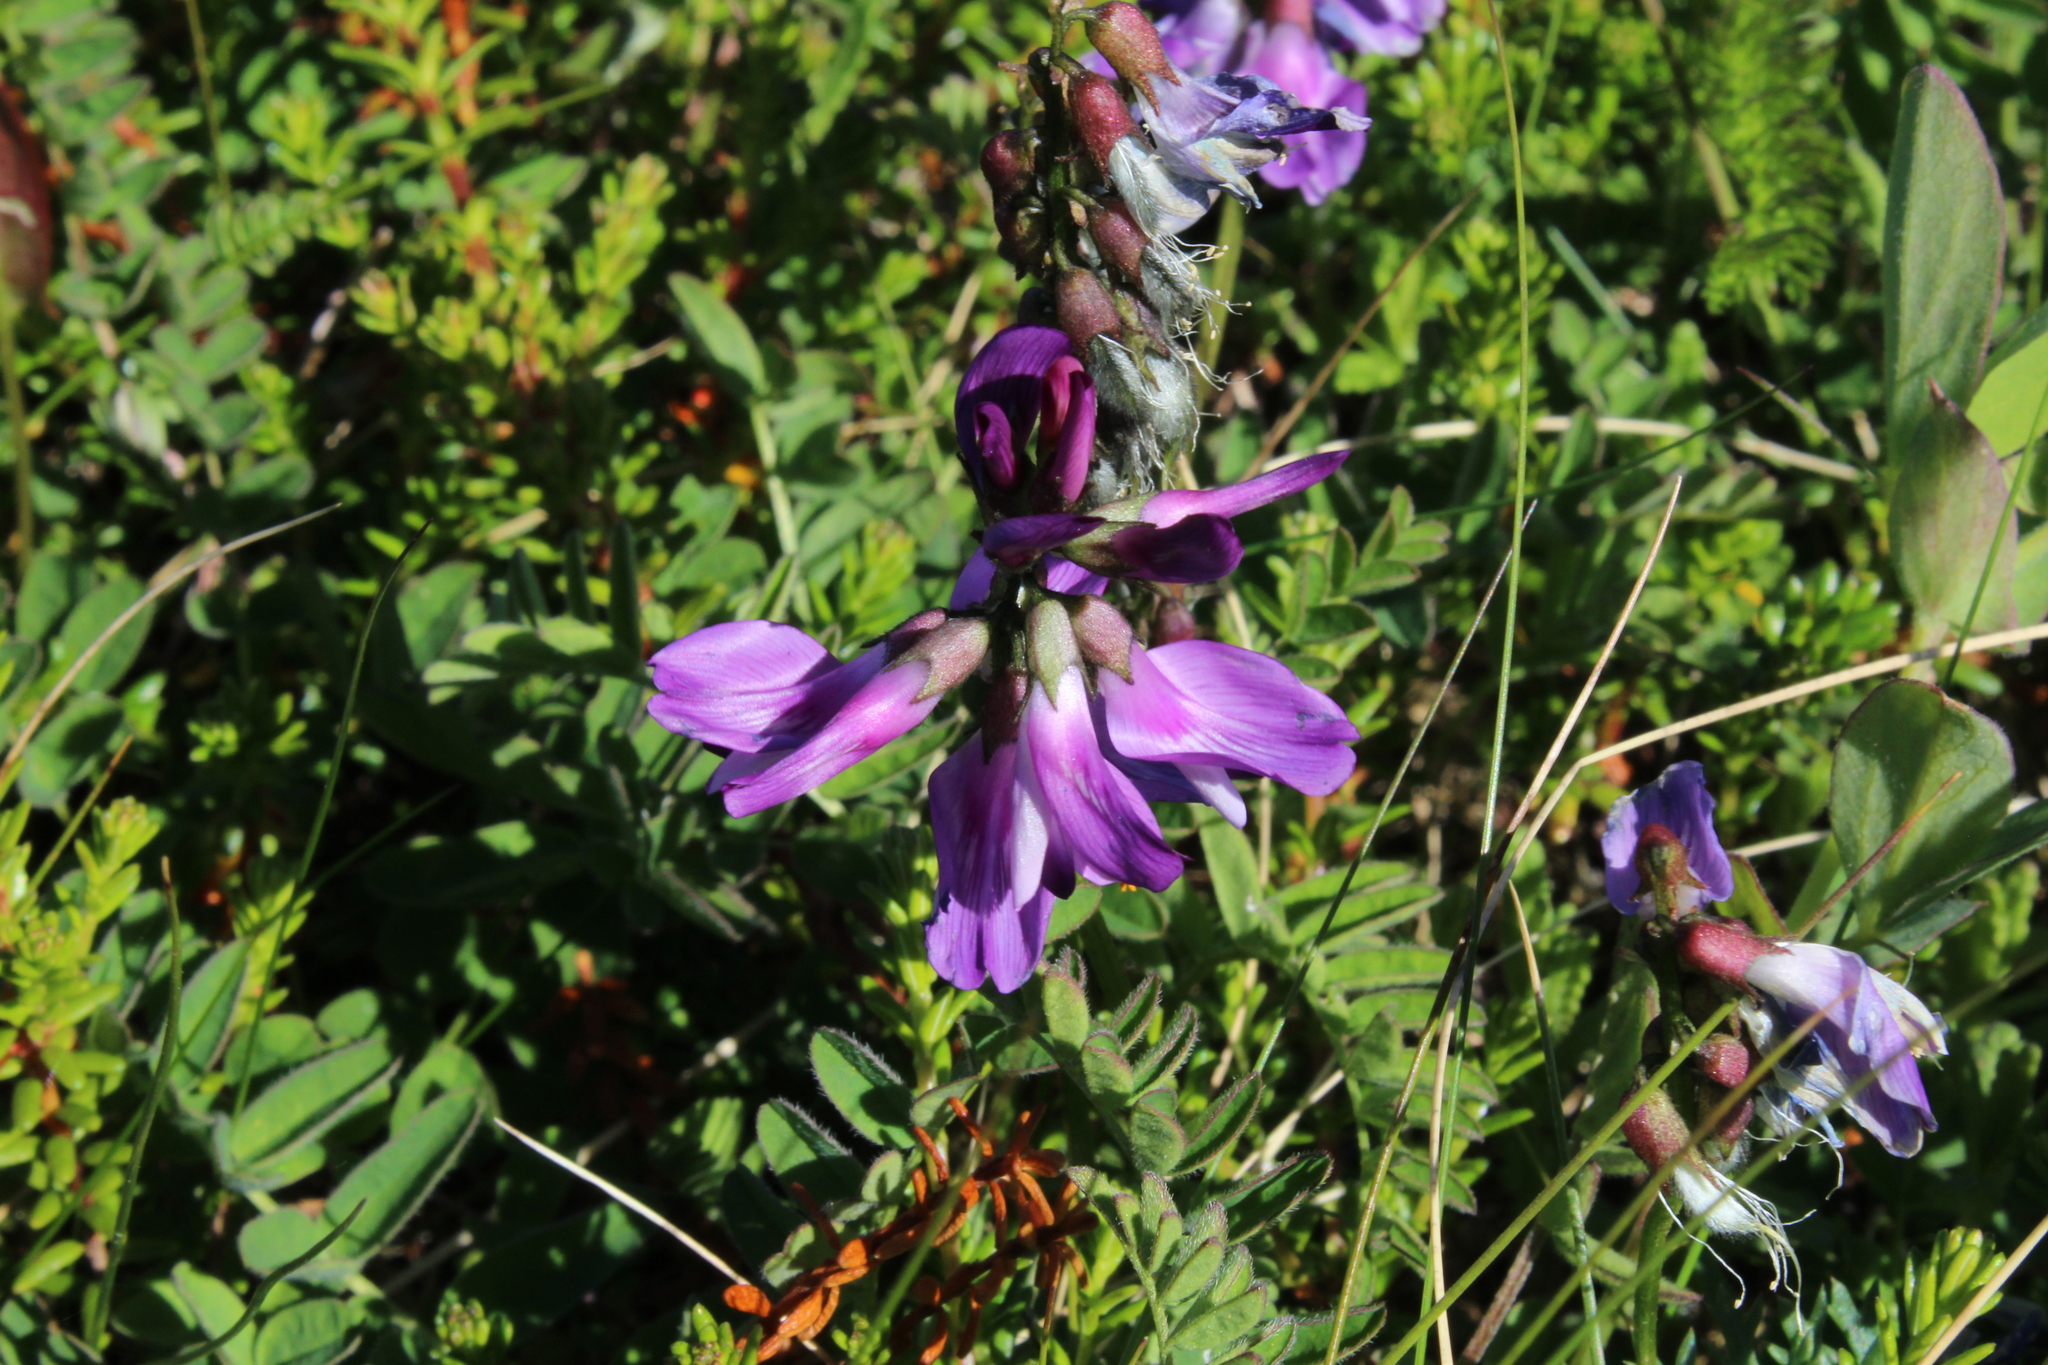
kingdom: Plantae
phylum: Tracheophyta
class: Magnoliopsida
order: Fabales
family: Fabaceae
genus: Astragalus
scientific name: Astragalus alpinus
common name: Alpine milk-vetch
